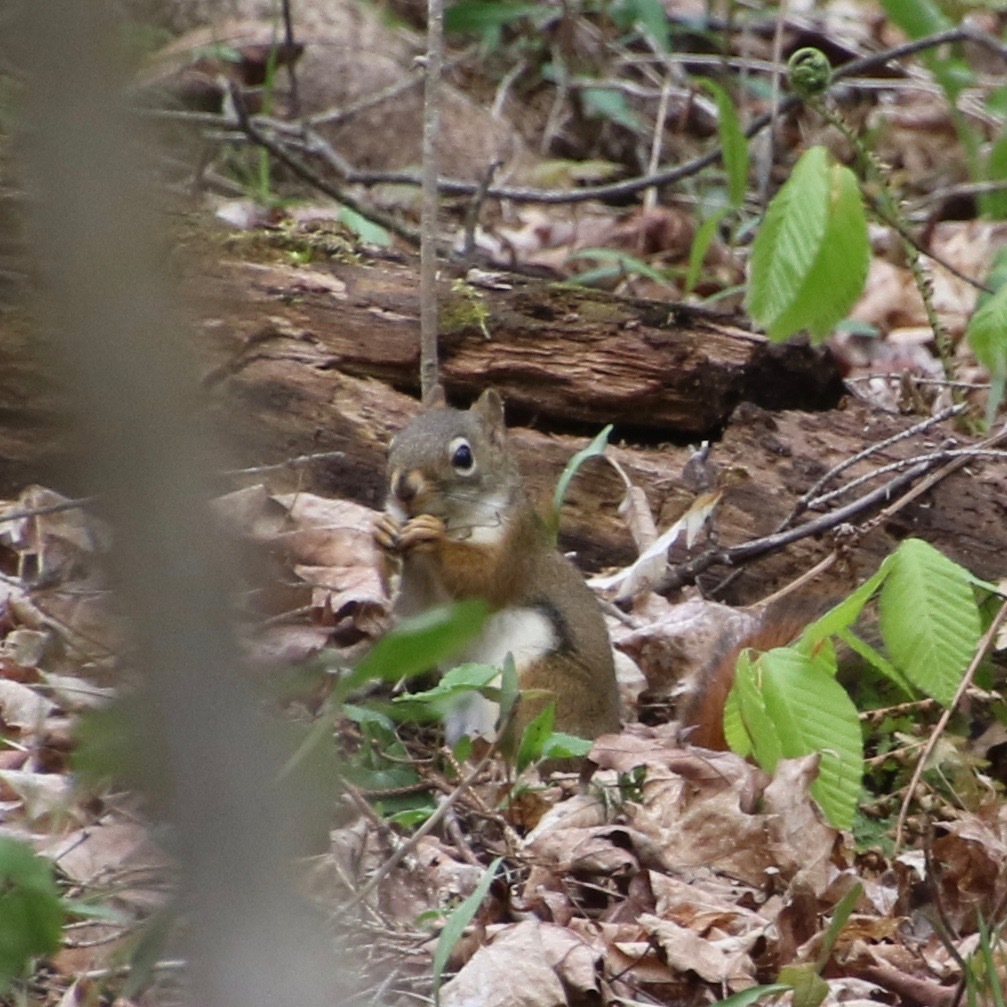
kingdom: Animalia
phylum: Chordata
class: Mammalia
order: Rodentia
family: Sciuridae
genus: Tamiasciurus
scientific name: Tamiasciurus hudsonicus
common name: Red squirrel
